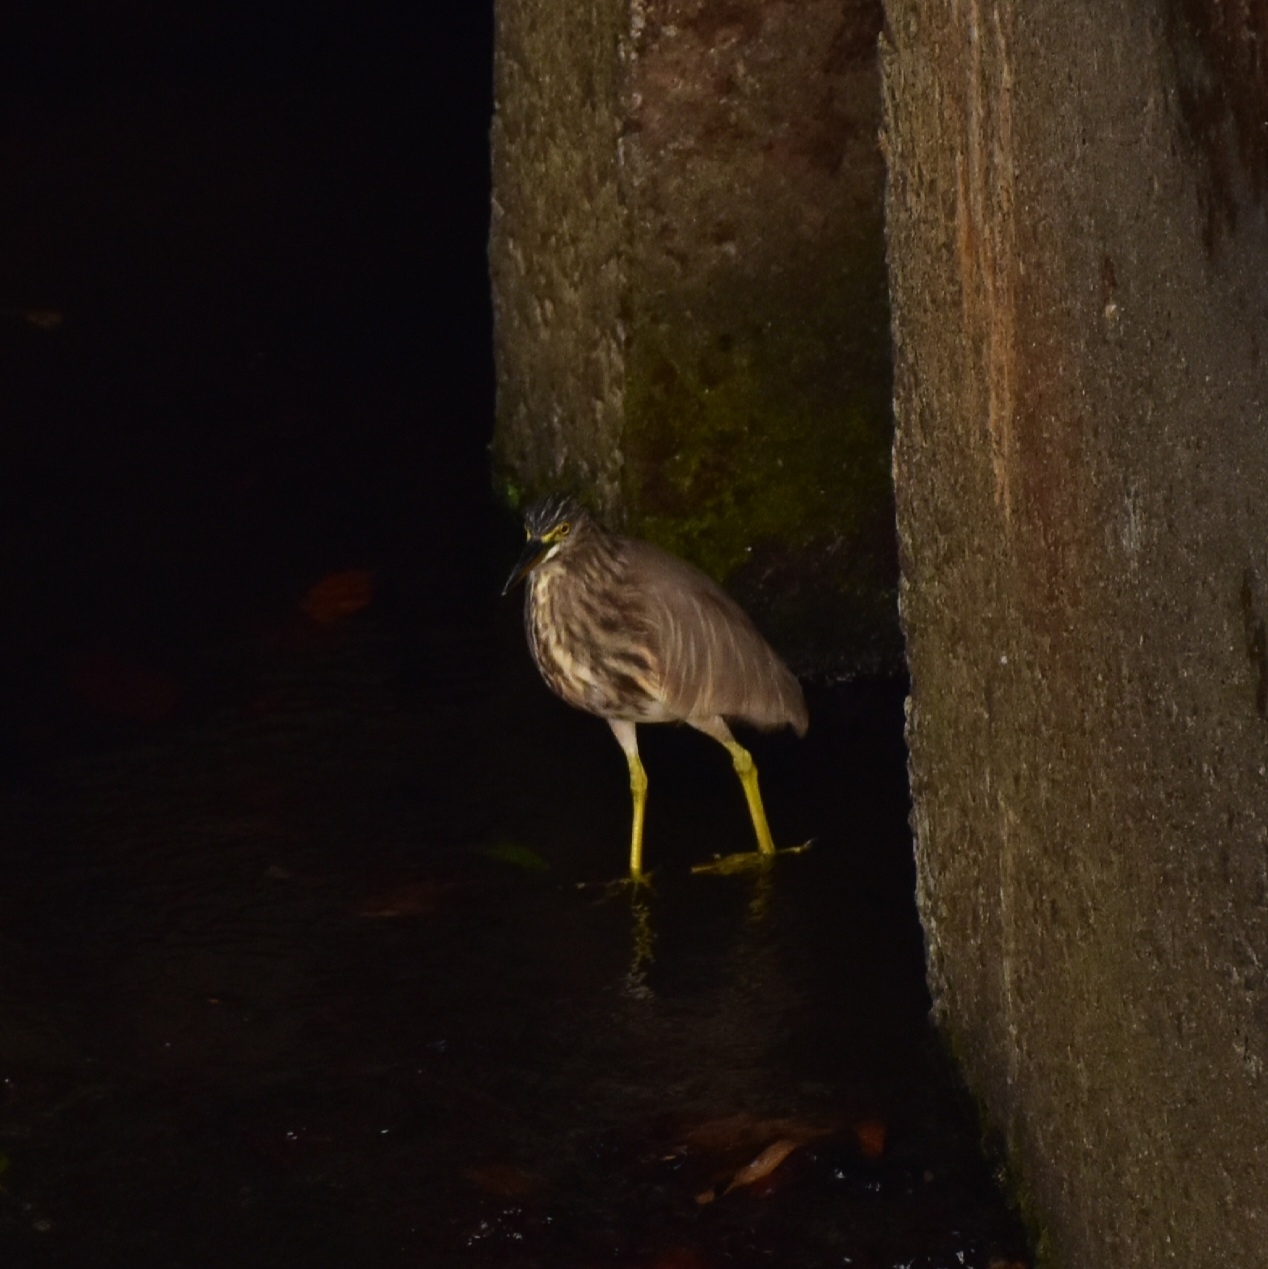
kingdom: Animalia
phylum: Chordata
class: Aves
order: Pelecaniformes
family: Ardeidae
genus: Ardeola
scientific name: Ardeola grayii
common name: Indian pond heron
